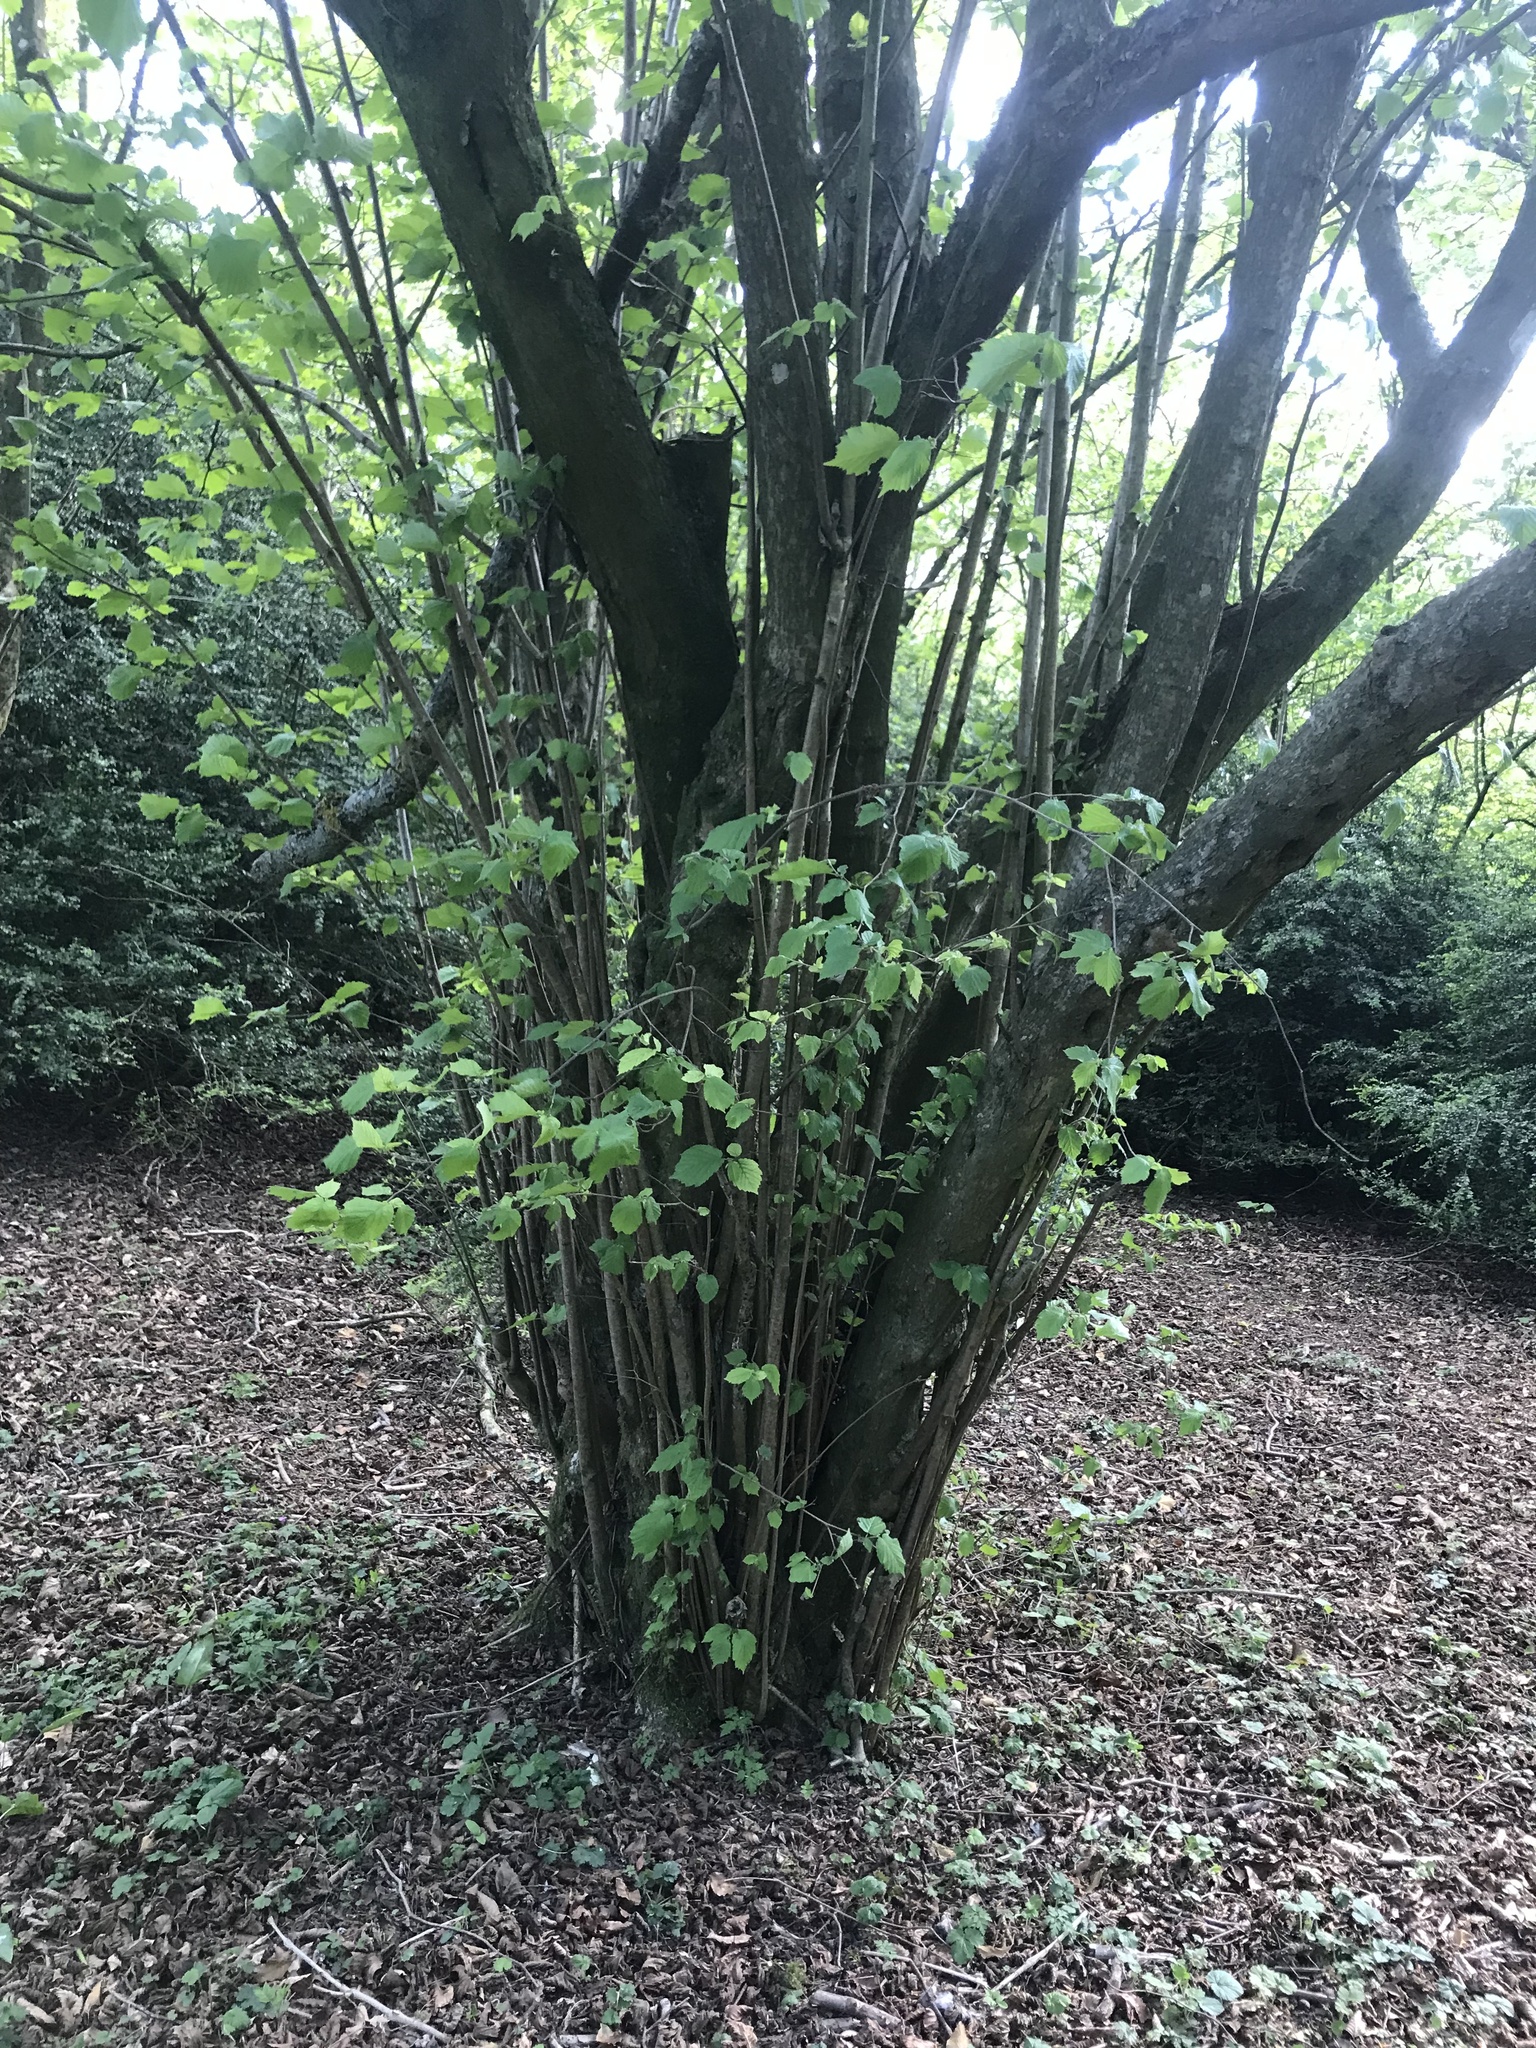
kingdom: Plantae
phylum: Tracheophyta
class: Magnoliopsida
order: Fagales
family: Betulaceae
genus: Corylus
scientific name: Corylus avellana
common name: European hazel
